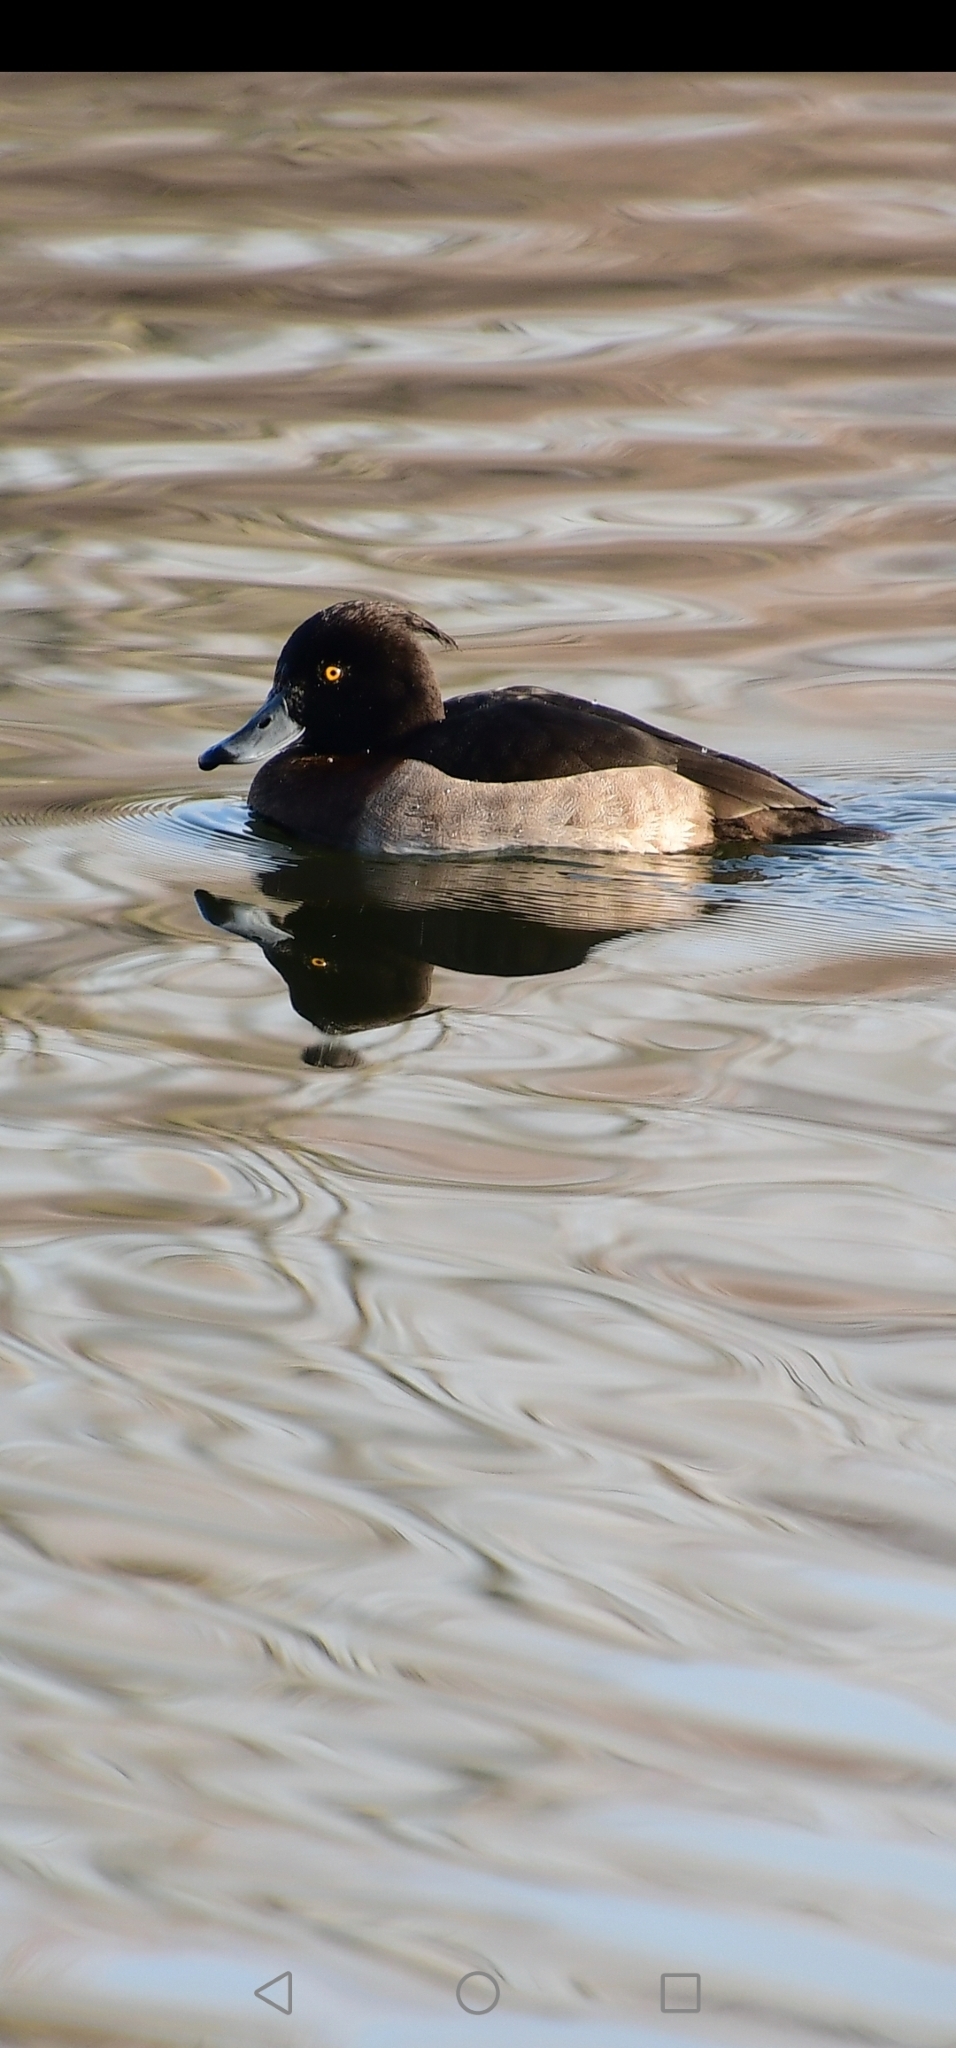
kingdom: Animalia
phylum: Chordata
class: Aves
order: Anseriformes
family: Anatidae
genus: Aythya
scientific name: Aythya fuligula
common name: Tufted duck
